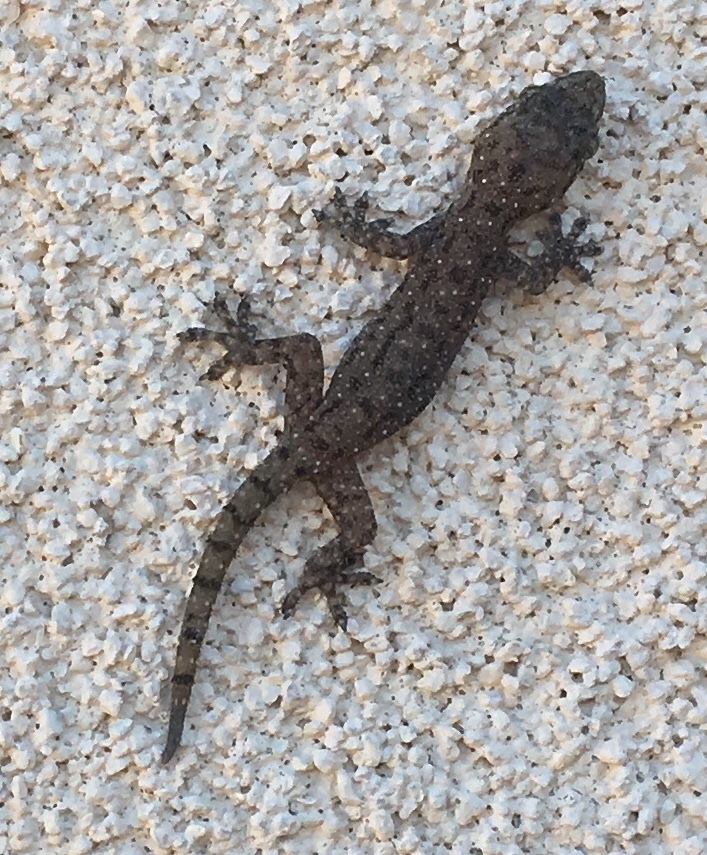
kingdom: Animalia
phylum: Chordata
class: Squamata
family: Gekkonidae
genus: Hemidactylus
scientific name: Hemidactylus parvimaculatus
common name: Spotted house gecko
